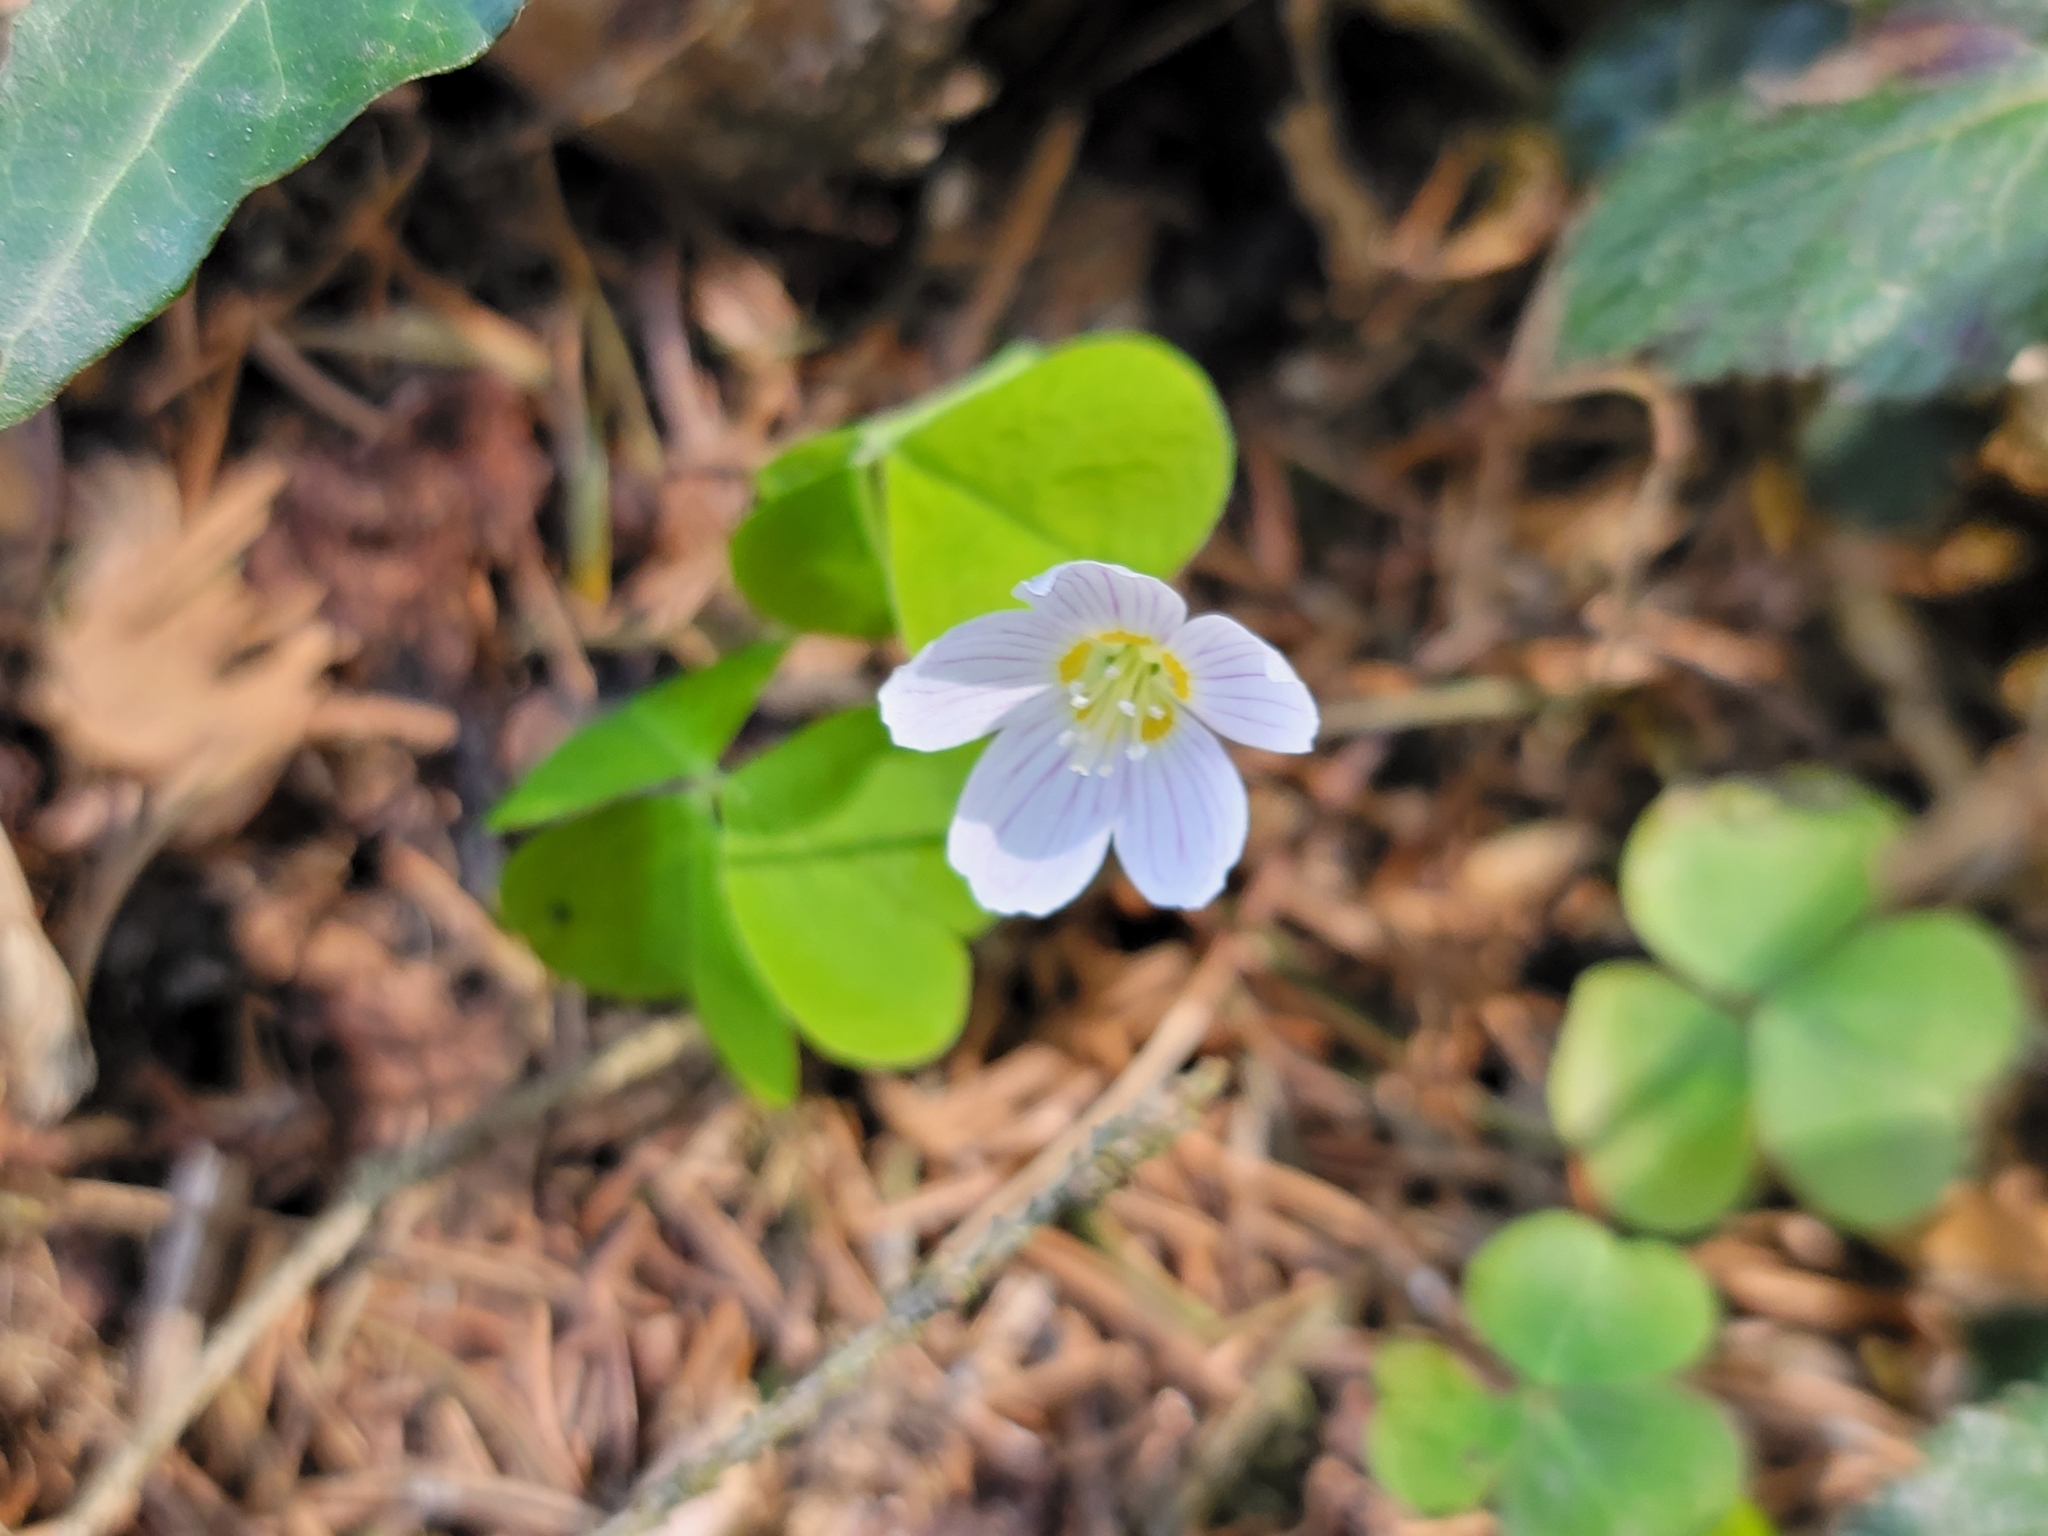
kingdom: Plantae
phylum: Tracheophyta
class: Magnoliopsida
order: Oxalidales
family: Oxalidaceae
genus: Oxalis
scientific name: Oxalis acetosella
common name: Wood-sorrel
